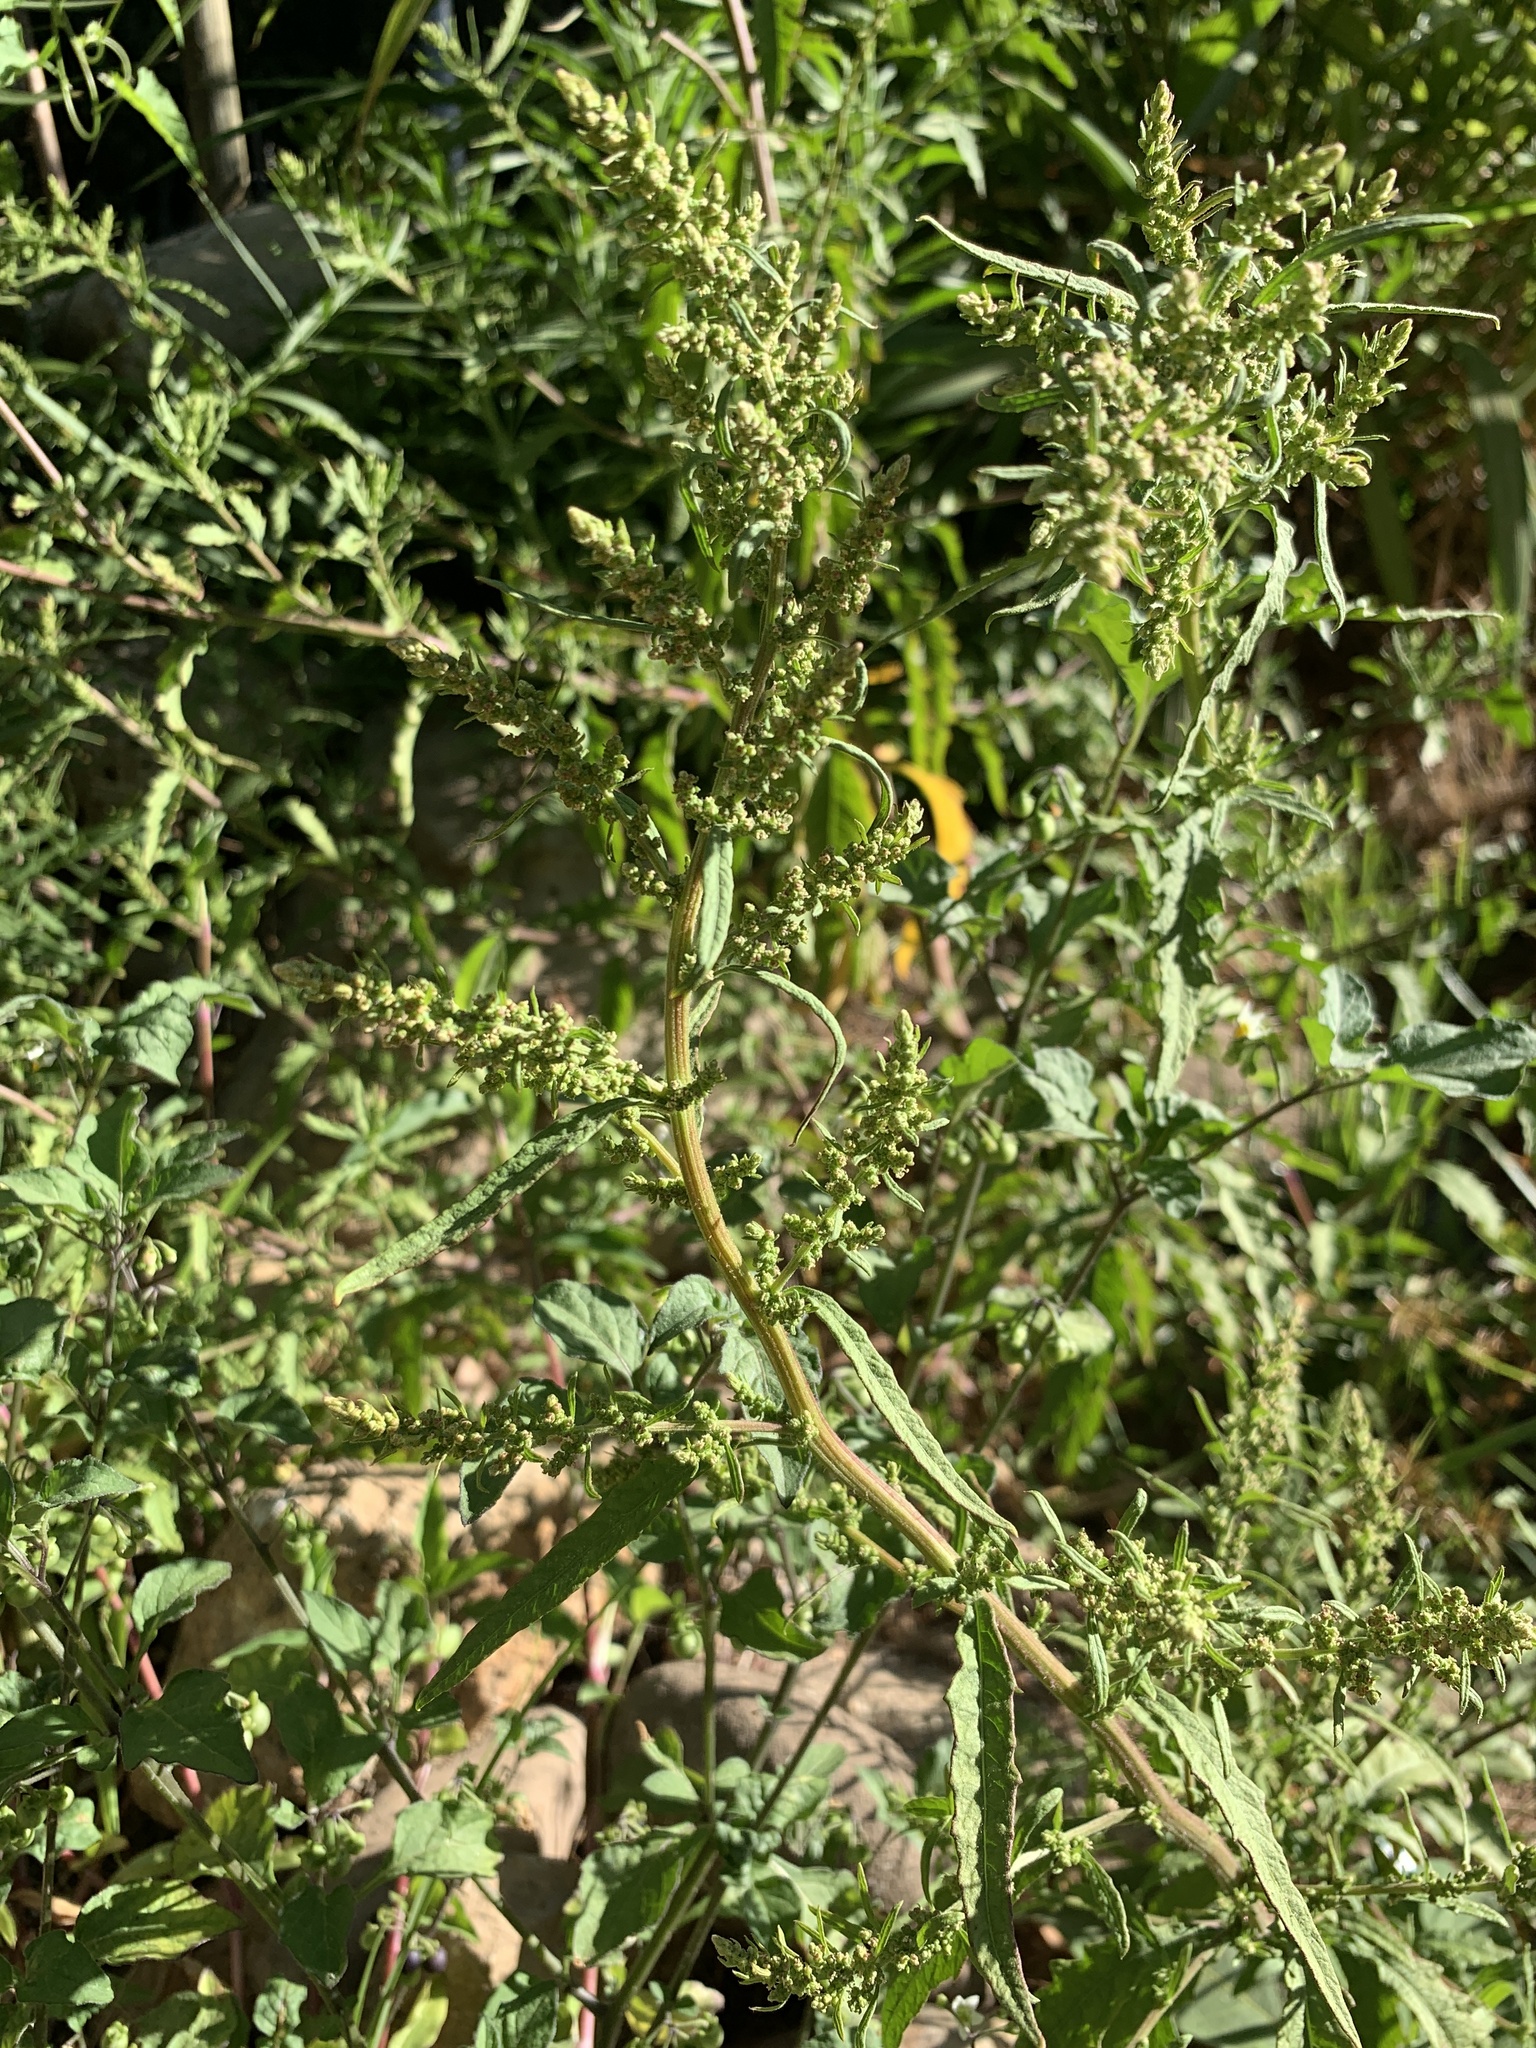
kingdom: Plantae
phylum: Tracheophyta
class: Magnoliopsida
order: Caryophyllales
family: Amaranthaceae
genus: Dysphania
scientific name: Dysphania ambrosioides
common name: Wormseed
